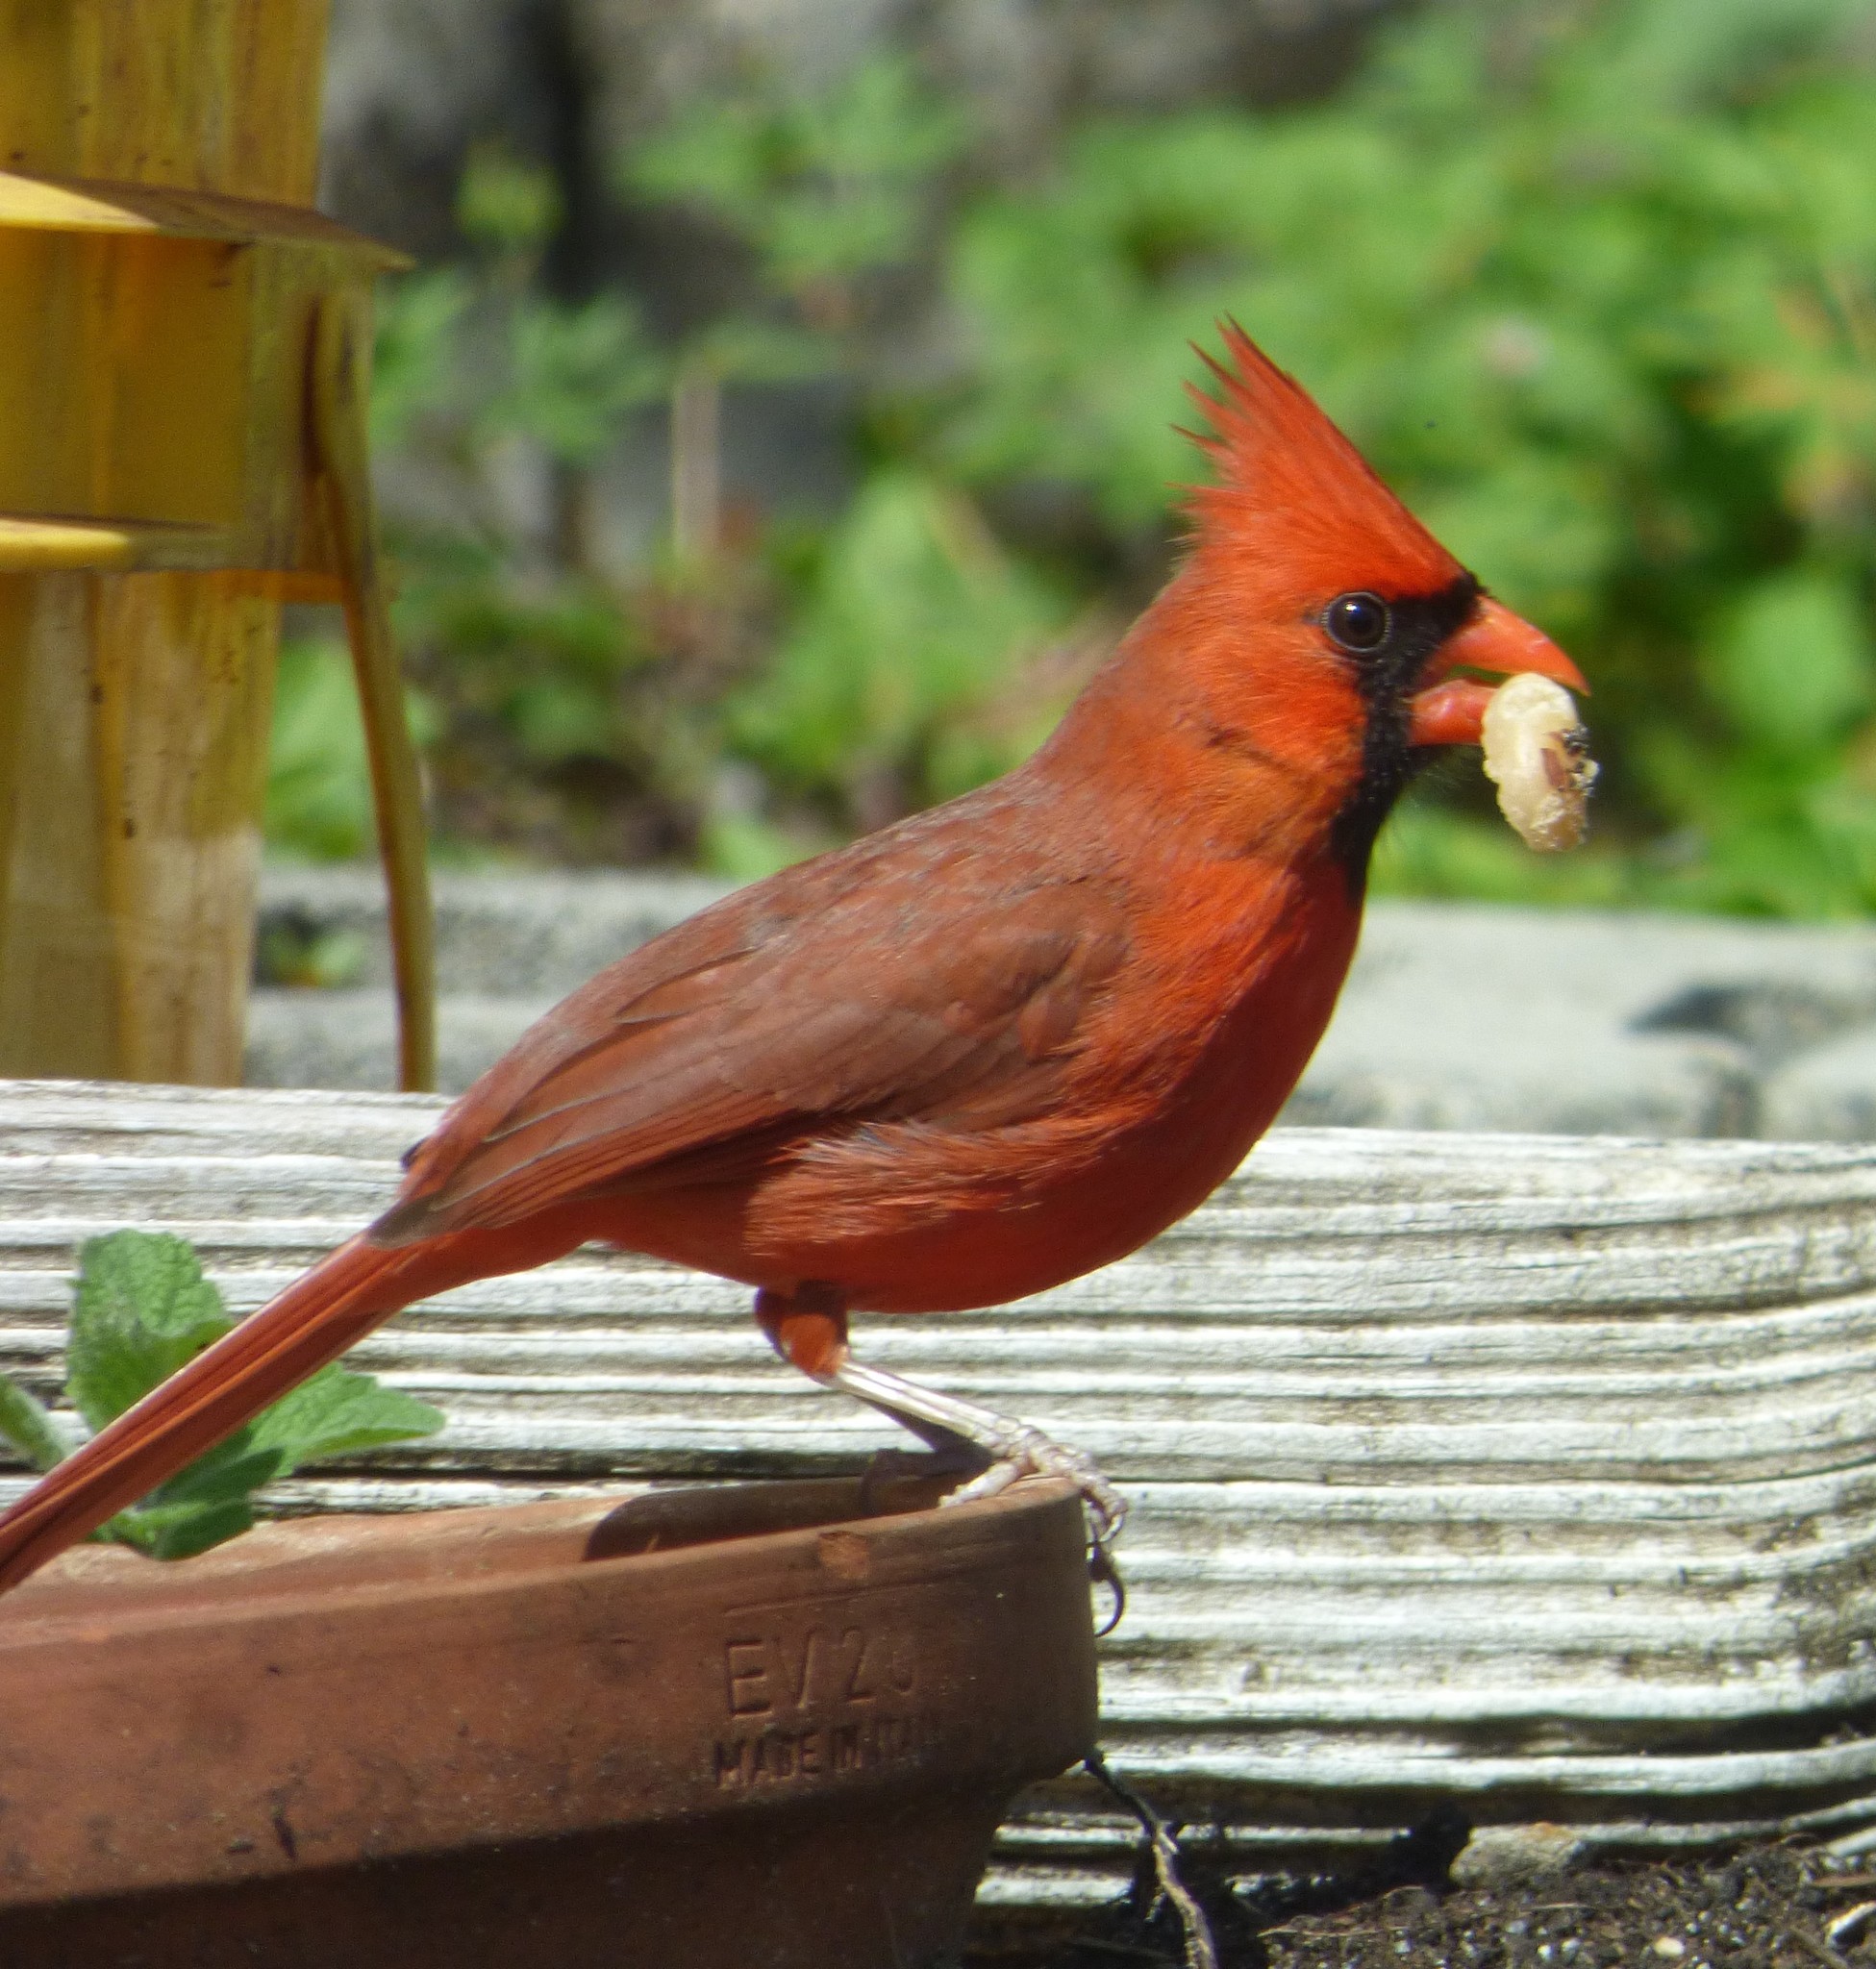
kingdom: Animalia
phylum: Chordata
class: Aves
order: Passeriformes
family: Cardinalidae
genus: Cardinalis
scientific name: Cardinalis cardinalis
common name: Northern cardinal
